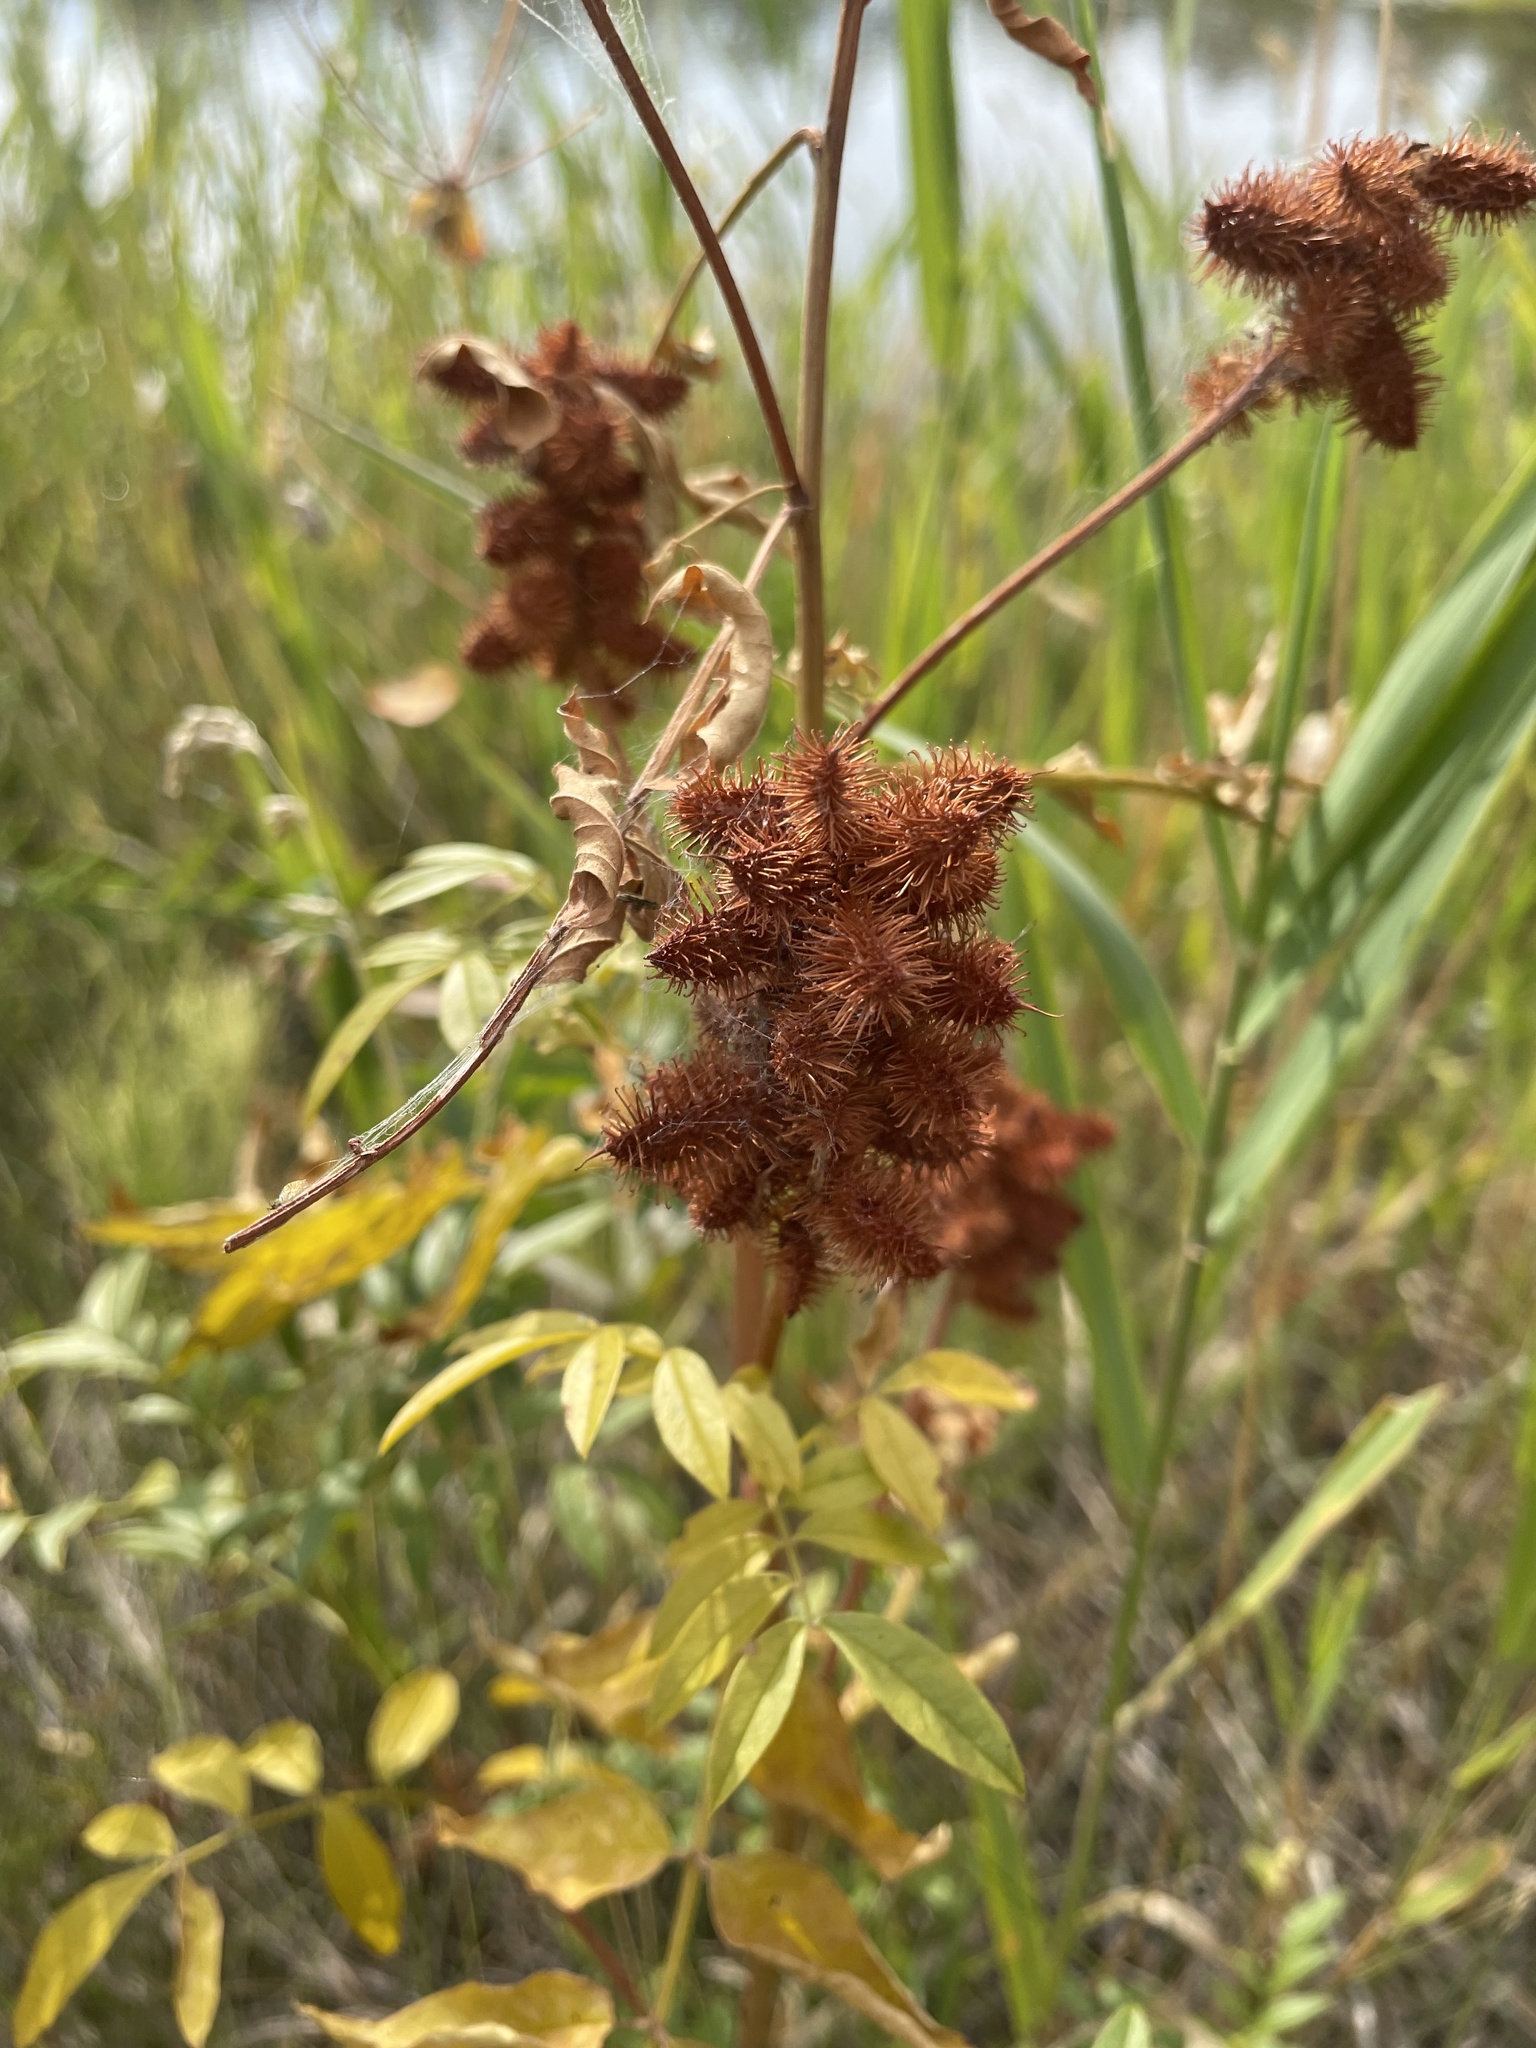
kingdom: Plantae
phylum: Tracheophyta
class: Magnoliopsida
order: Fabales
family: Fabaceae
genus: Glycyrrhiza
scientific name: Glycyrrhiza lepidota
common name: American liquorice
